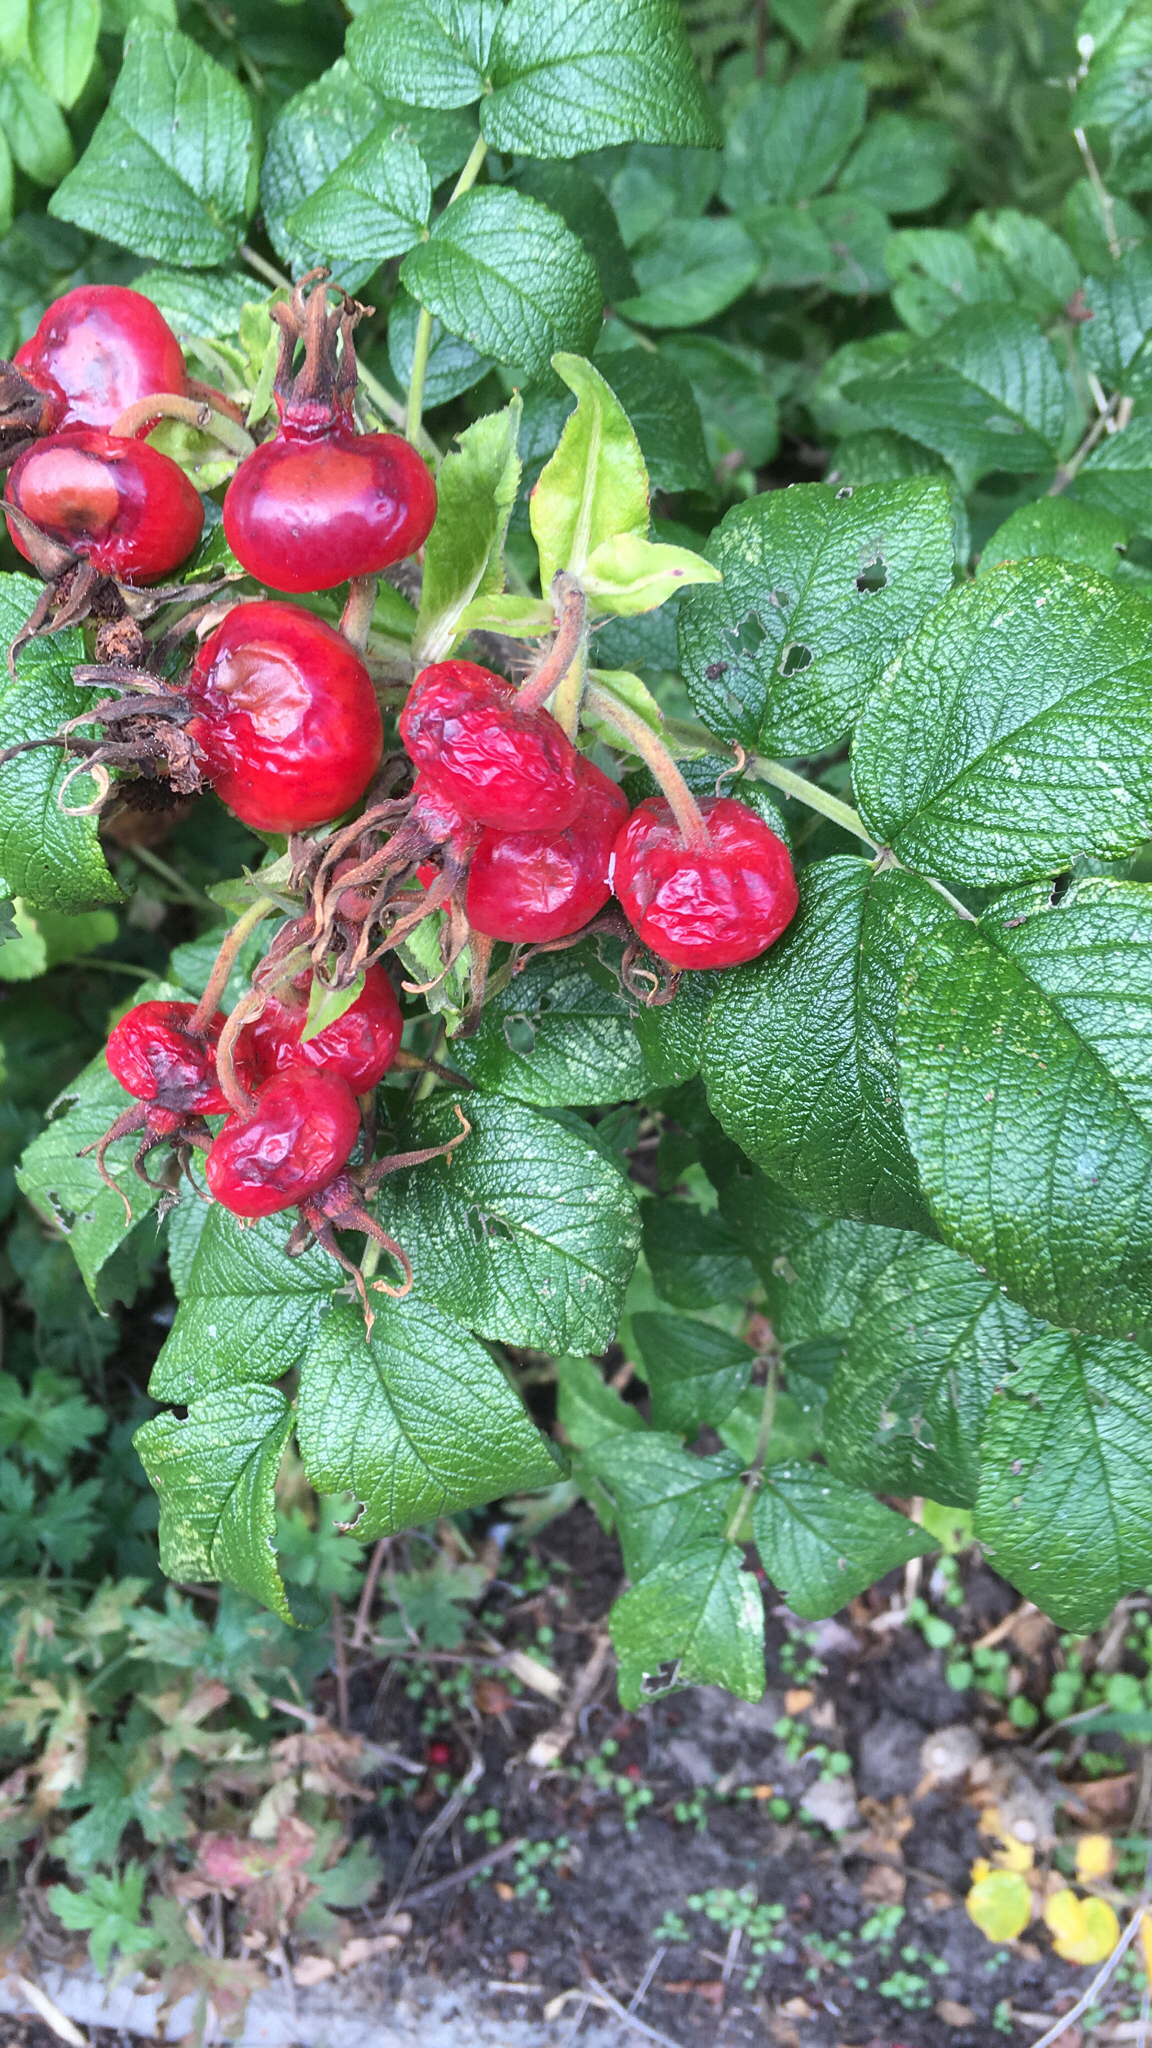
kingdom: Plantae
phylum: Tracheophyta
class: Magnoliopsida
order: Rosales
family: Rosaceae
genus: Rosa
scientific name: Rosa rugosa
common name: Japanese rose
